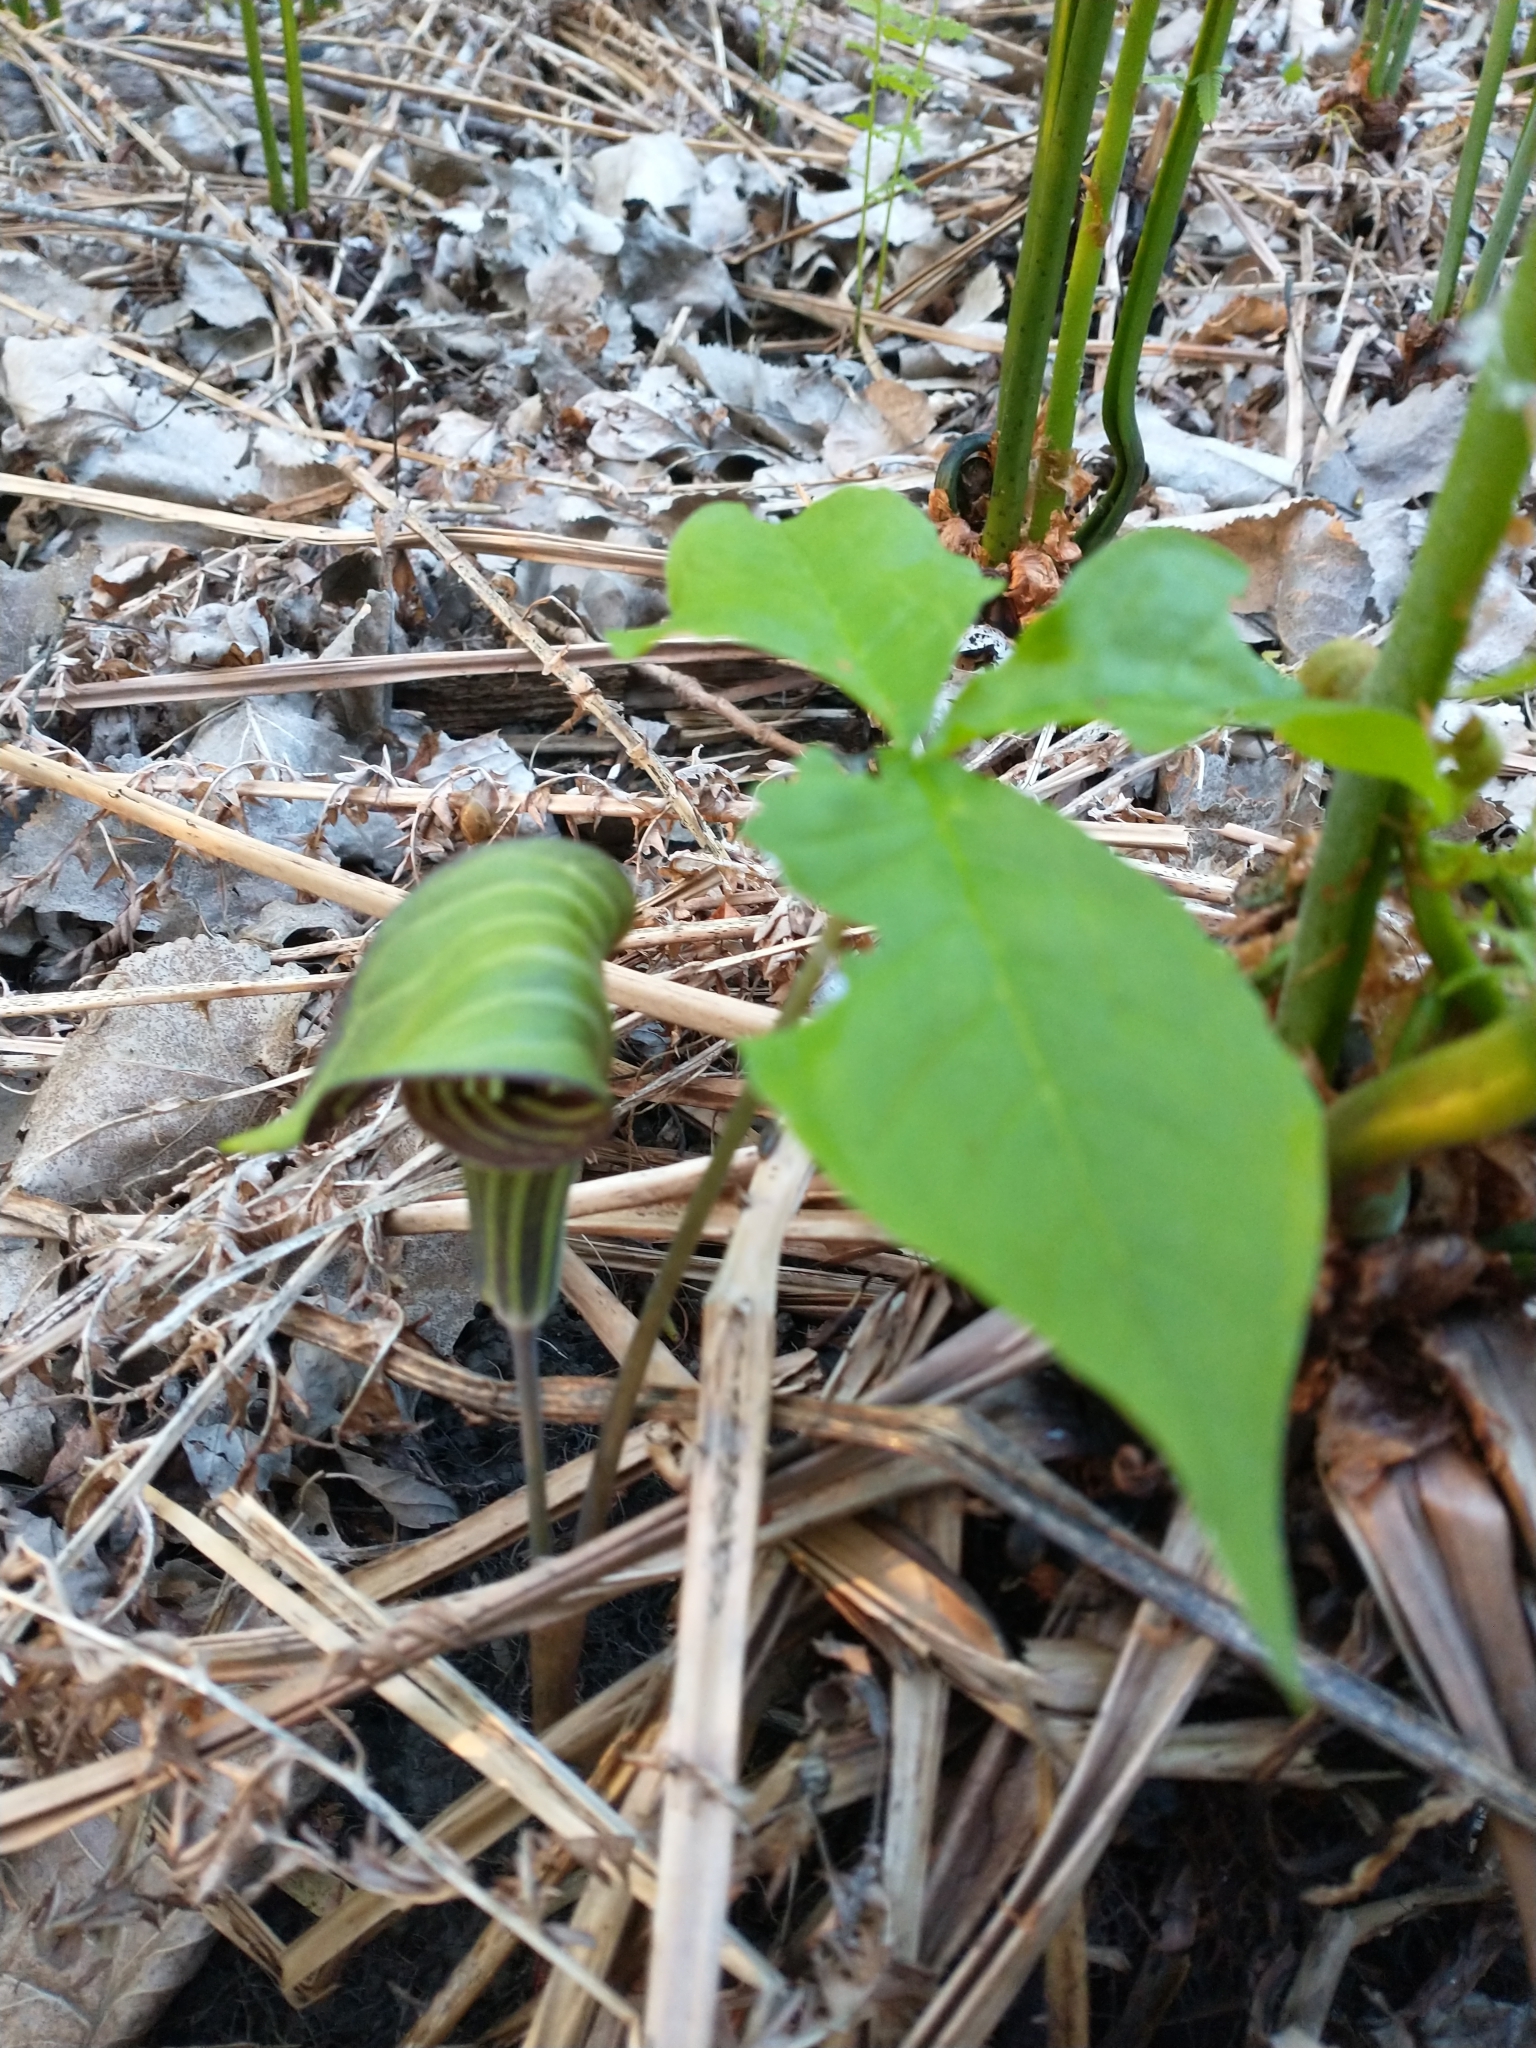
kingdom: Plantae
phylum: Tracheophyta
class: Liliopsida
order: Alismatales
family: Araceae
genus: Arisaema
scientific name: Arisaema triphyllum
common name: Jack-in-the-pulpit
